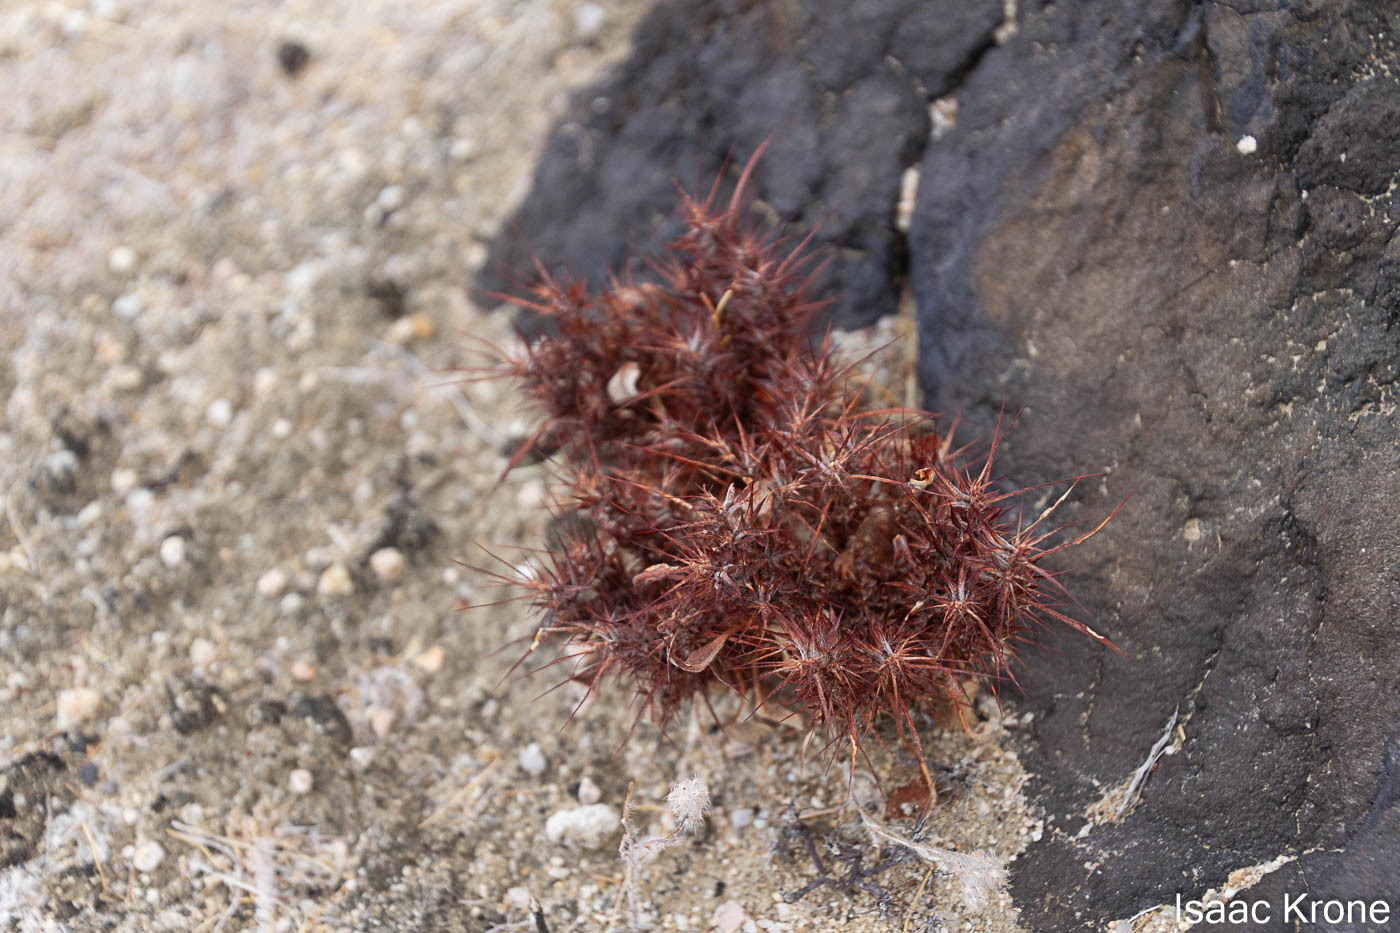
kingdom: Plantae
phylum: Tracheophyta
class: Magnoliopsida
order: Caryophyllales
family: Polygonaceae
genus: Chorizanthe
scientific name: Chorizanthe rigida
